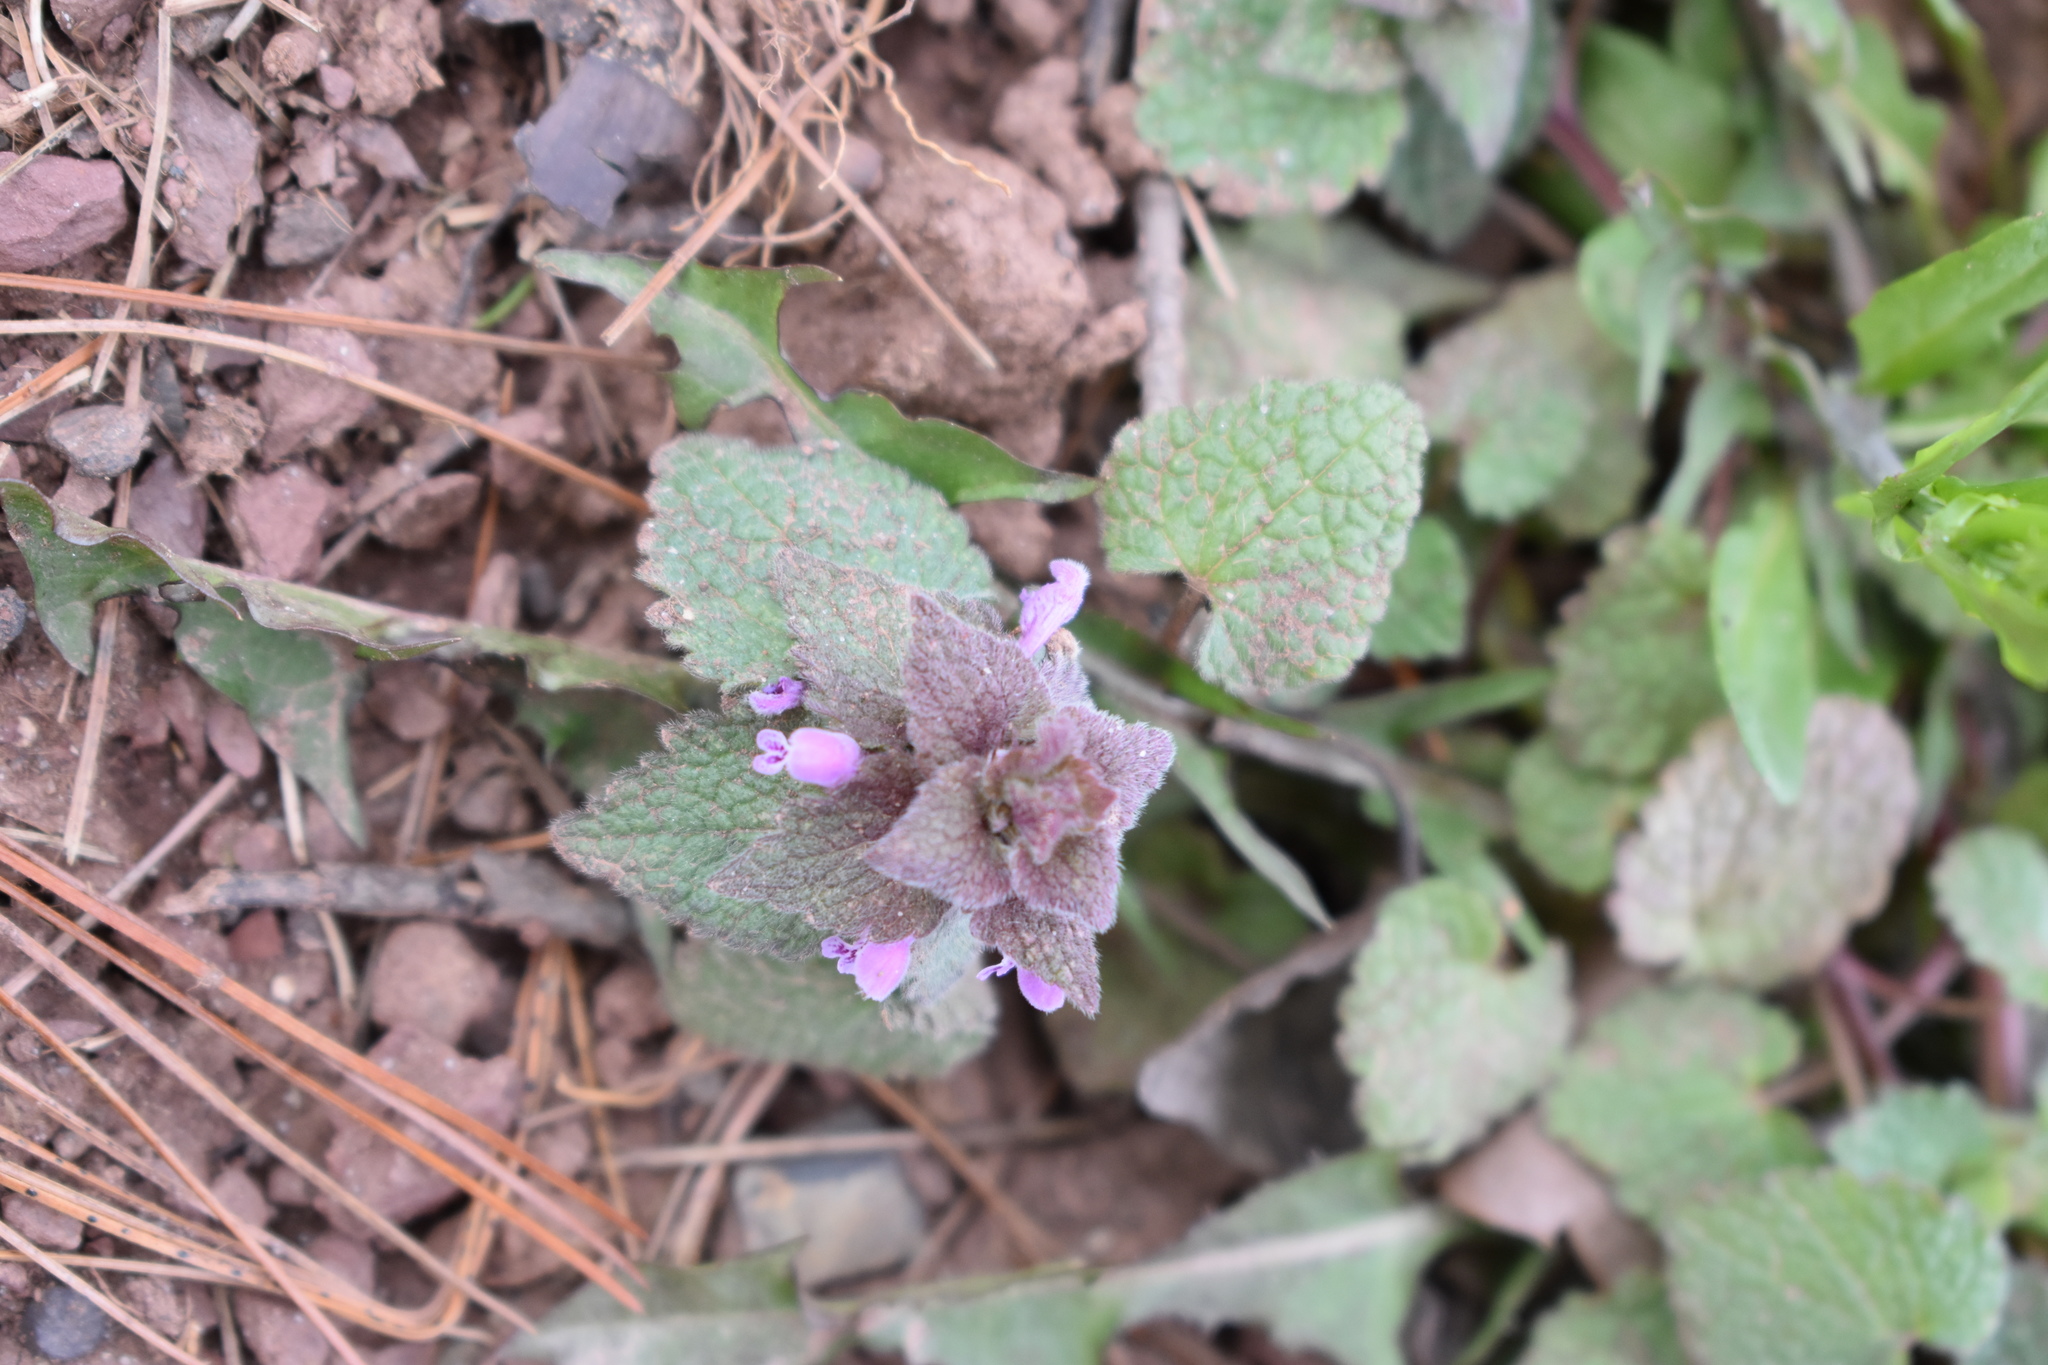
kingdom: Plantae
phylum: Tracheophyta
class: Magnoliopsida
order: Lamiales
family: Lamiaceae
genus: Lamium
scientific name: Lamium purpureum
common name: Red dead-nettle
